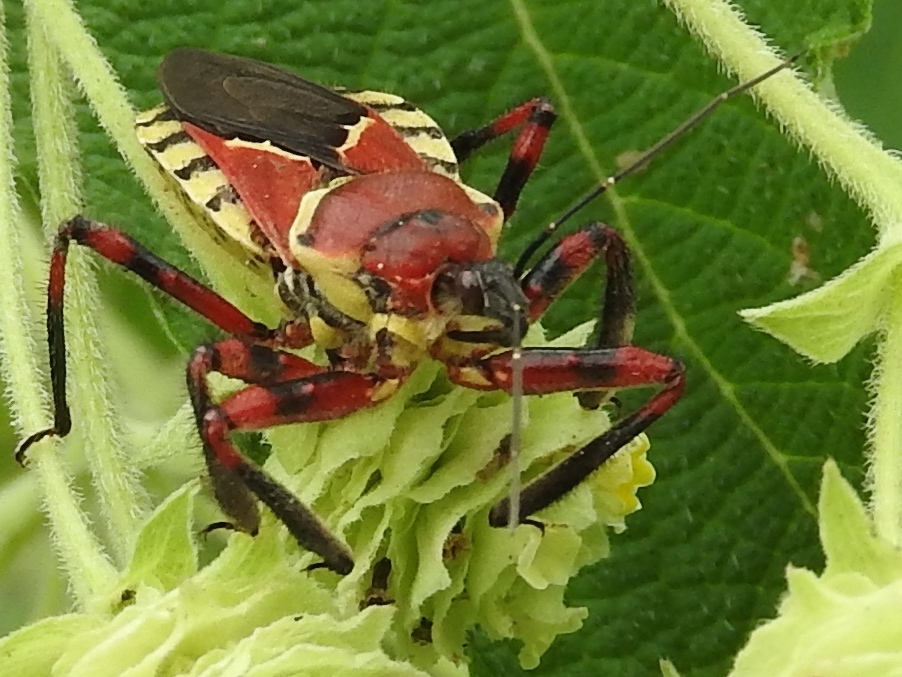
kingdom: Animalia
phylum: Arthropoda
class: Insecta
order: Hemiptera
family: Reduviidae
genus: Apiomerus
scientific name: Apiomerus flaviventris
